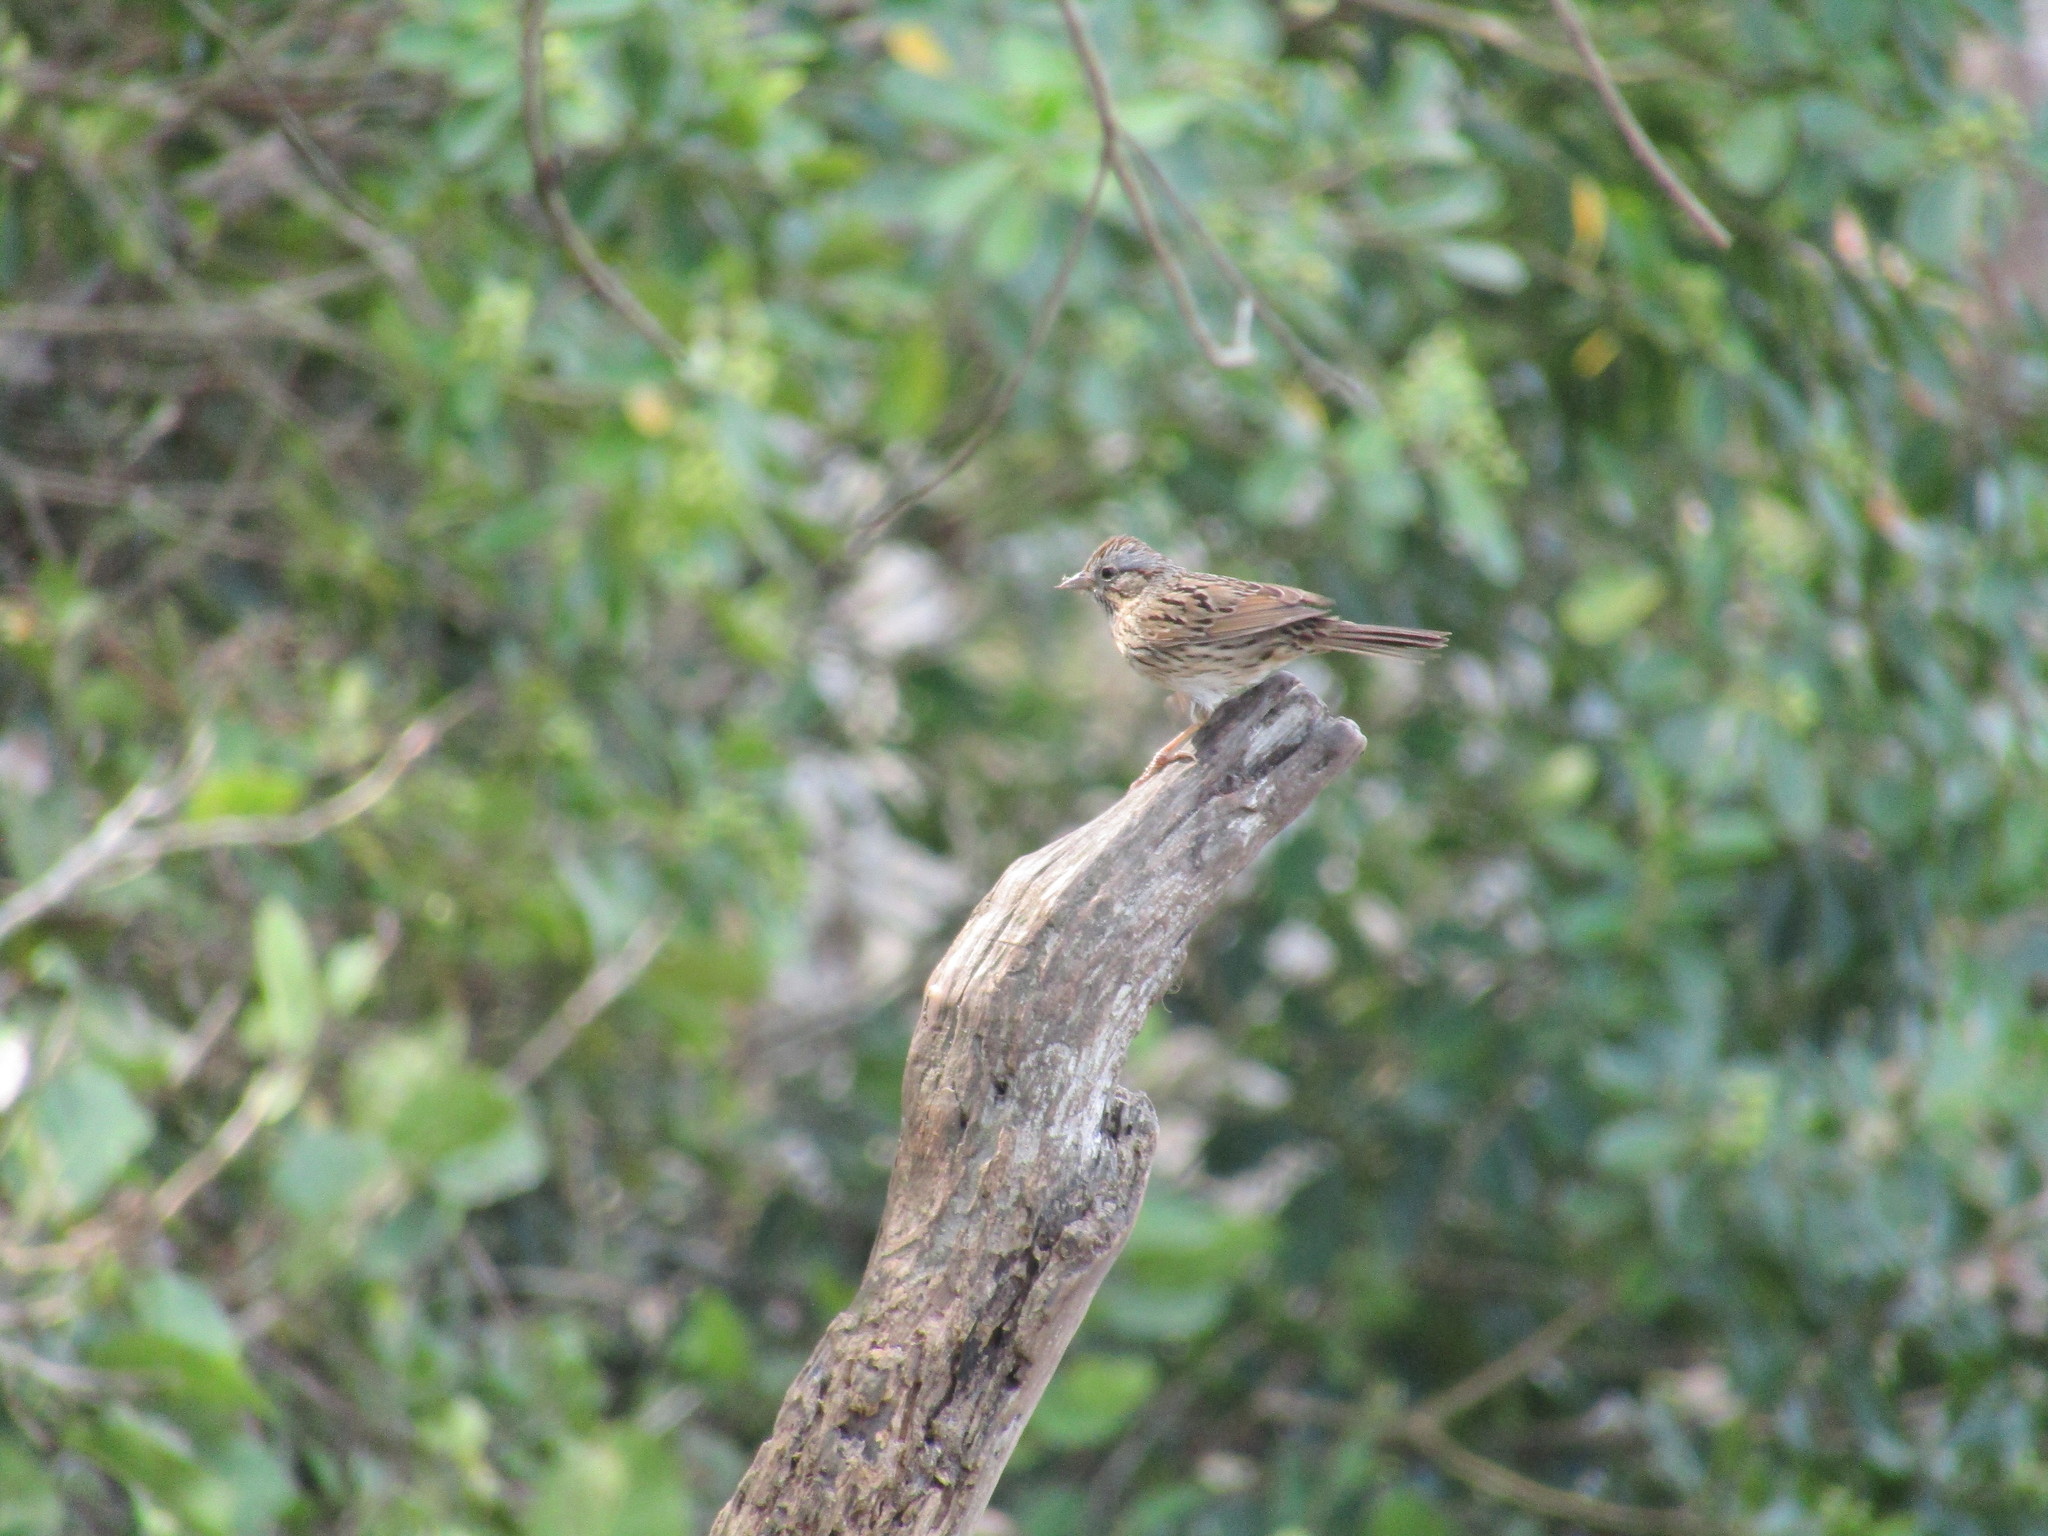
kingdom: Animalia
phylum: Chordata
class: Aves
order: Passeriformes
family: Passerellidae
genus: Melospiza
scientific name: Melospiza lincolnii
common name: Lincoln's sparrow
